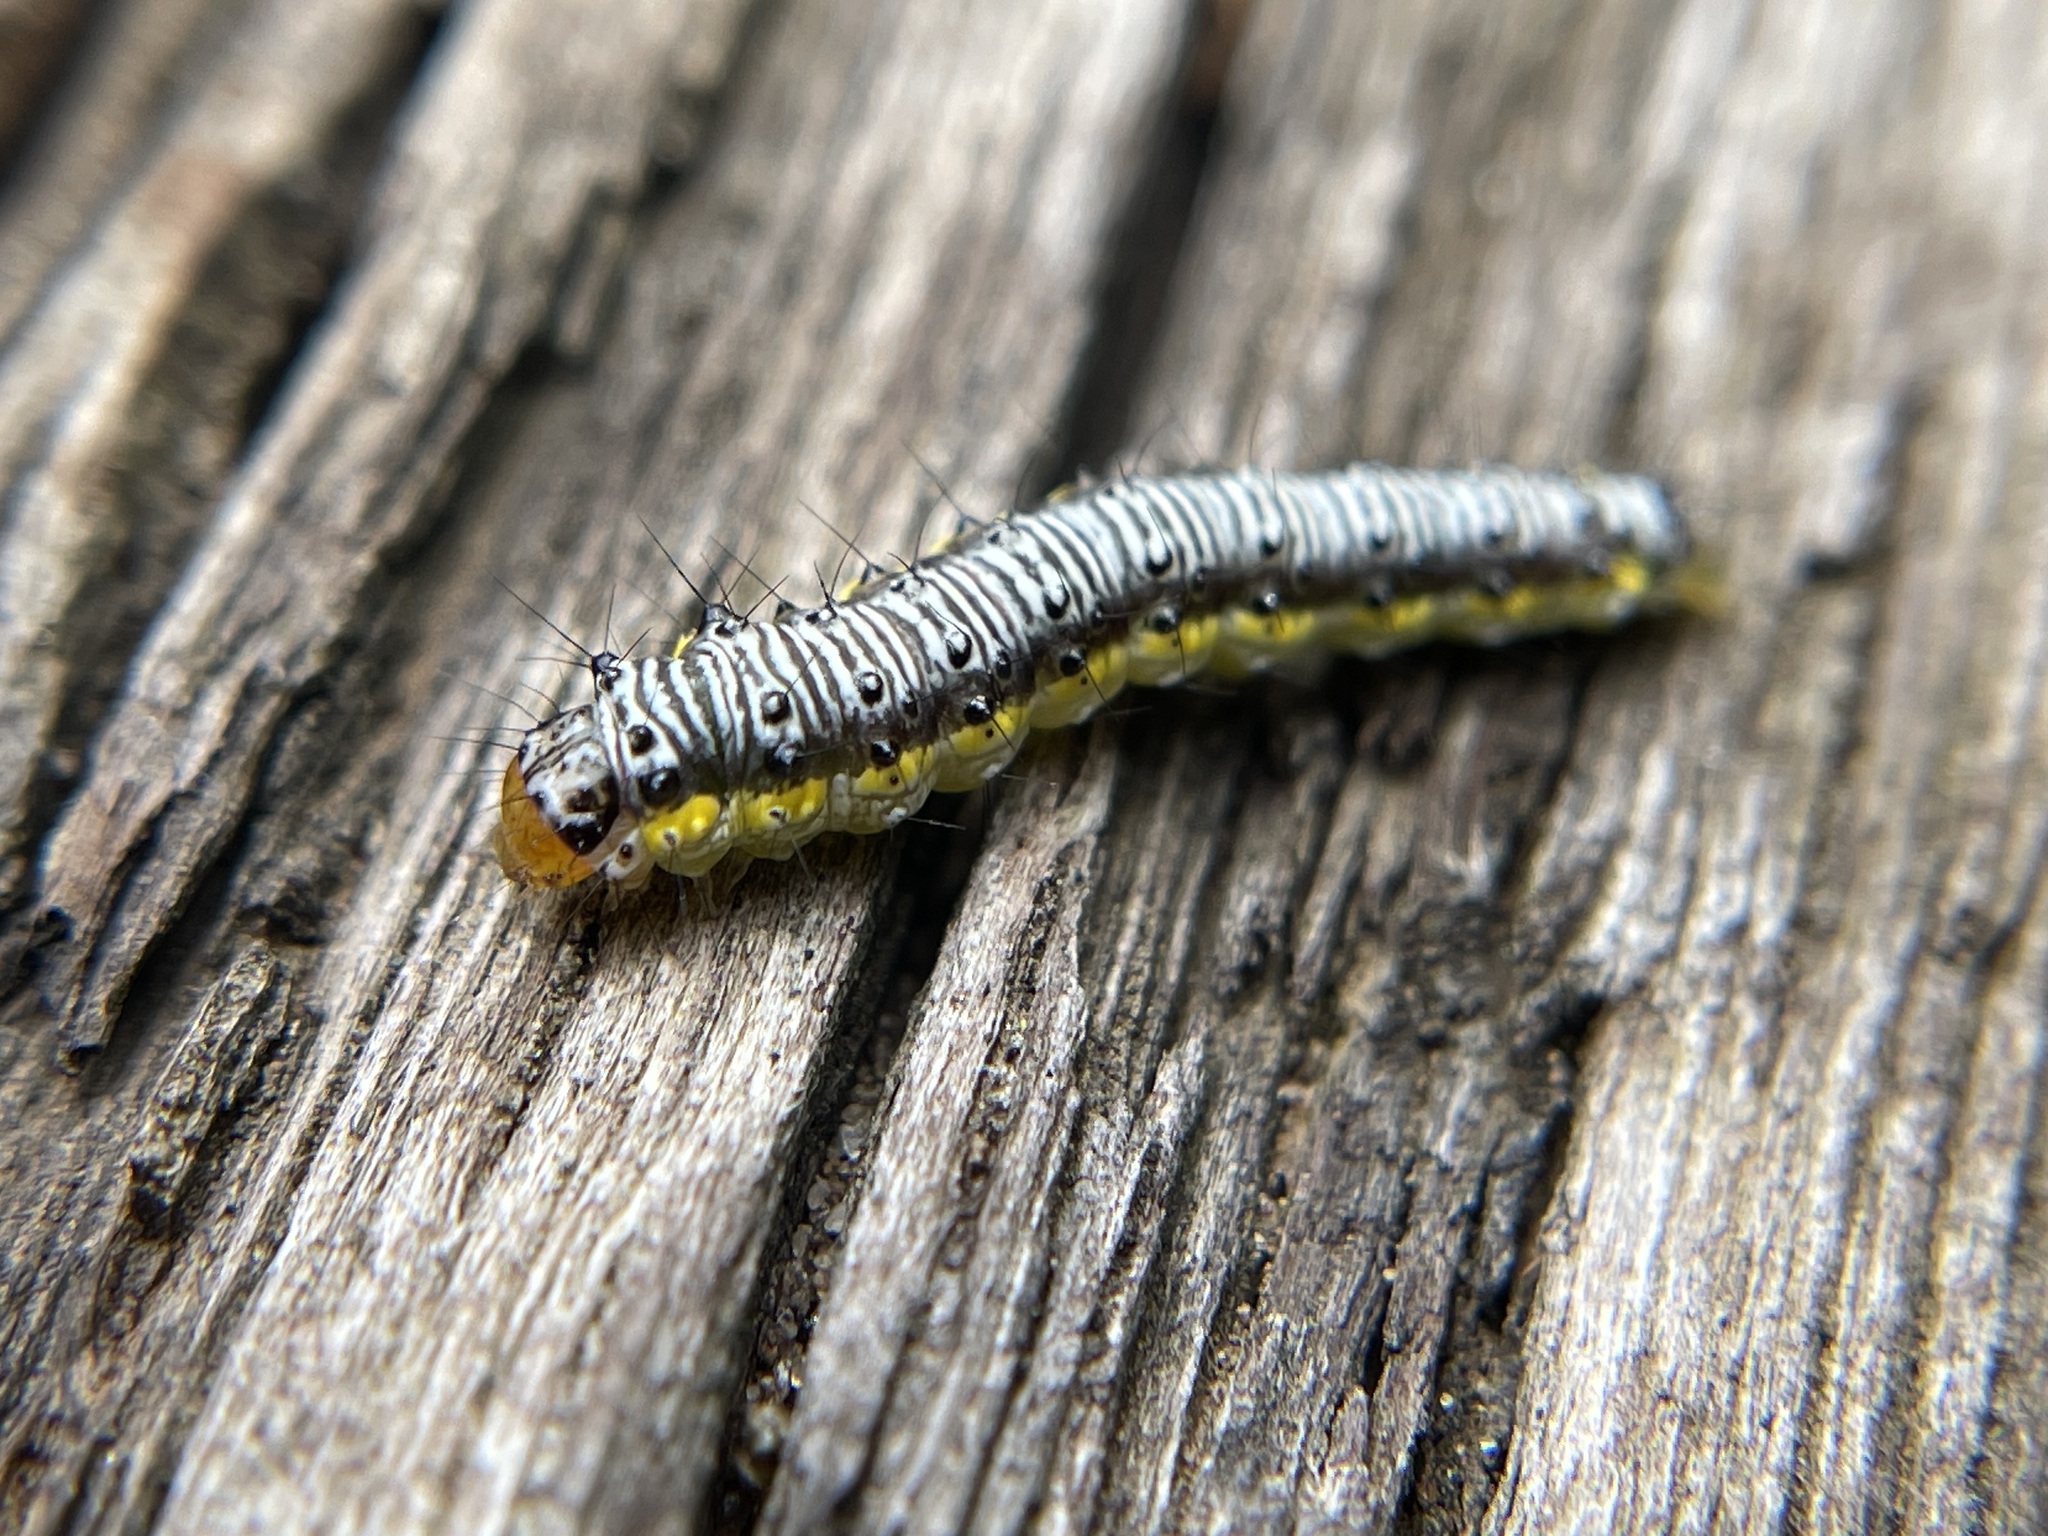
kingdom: Animalia
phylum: Arthropoda
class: Insecta
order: Lepidoptera
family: Crambidae
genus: Evergestis
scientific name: Evergestis rimosalis
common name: Cross-striped cabbageworm moth
